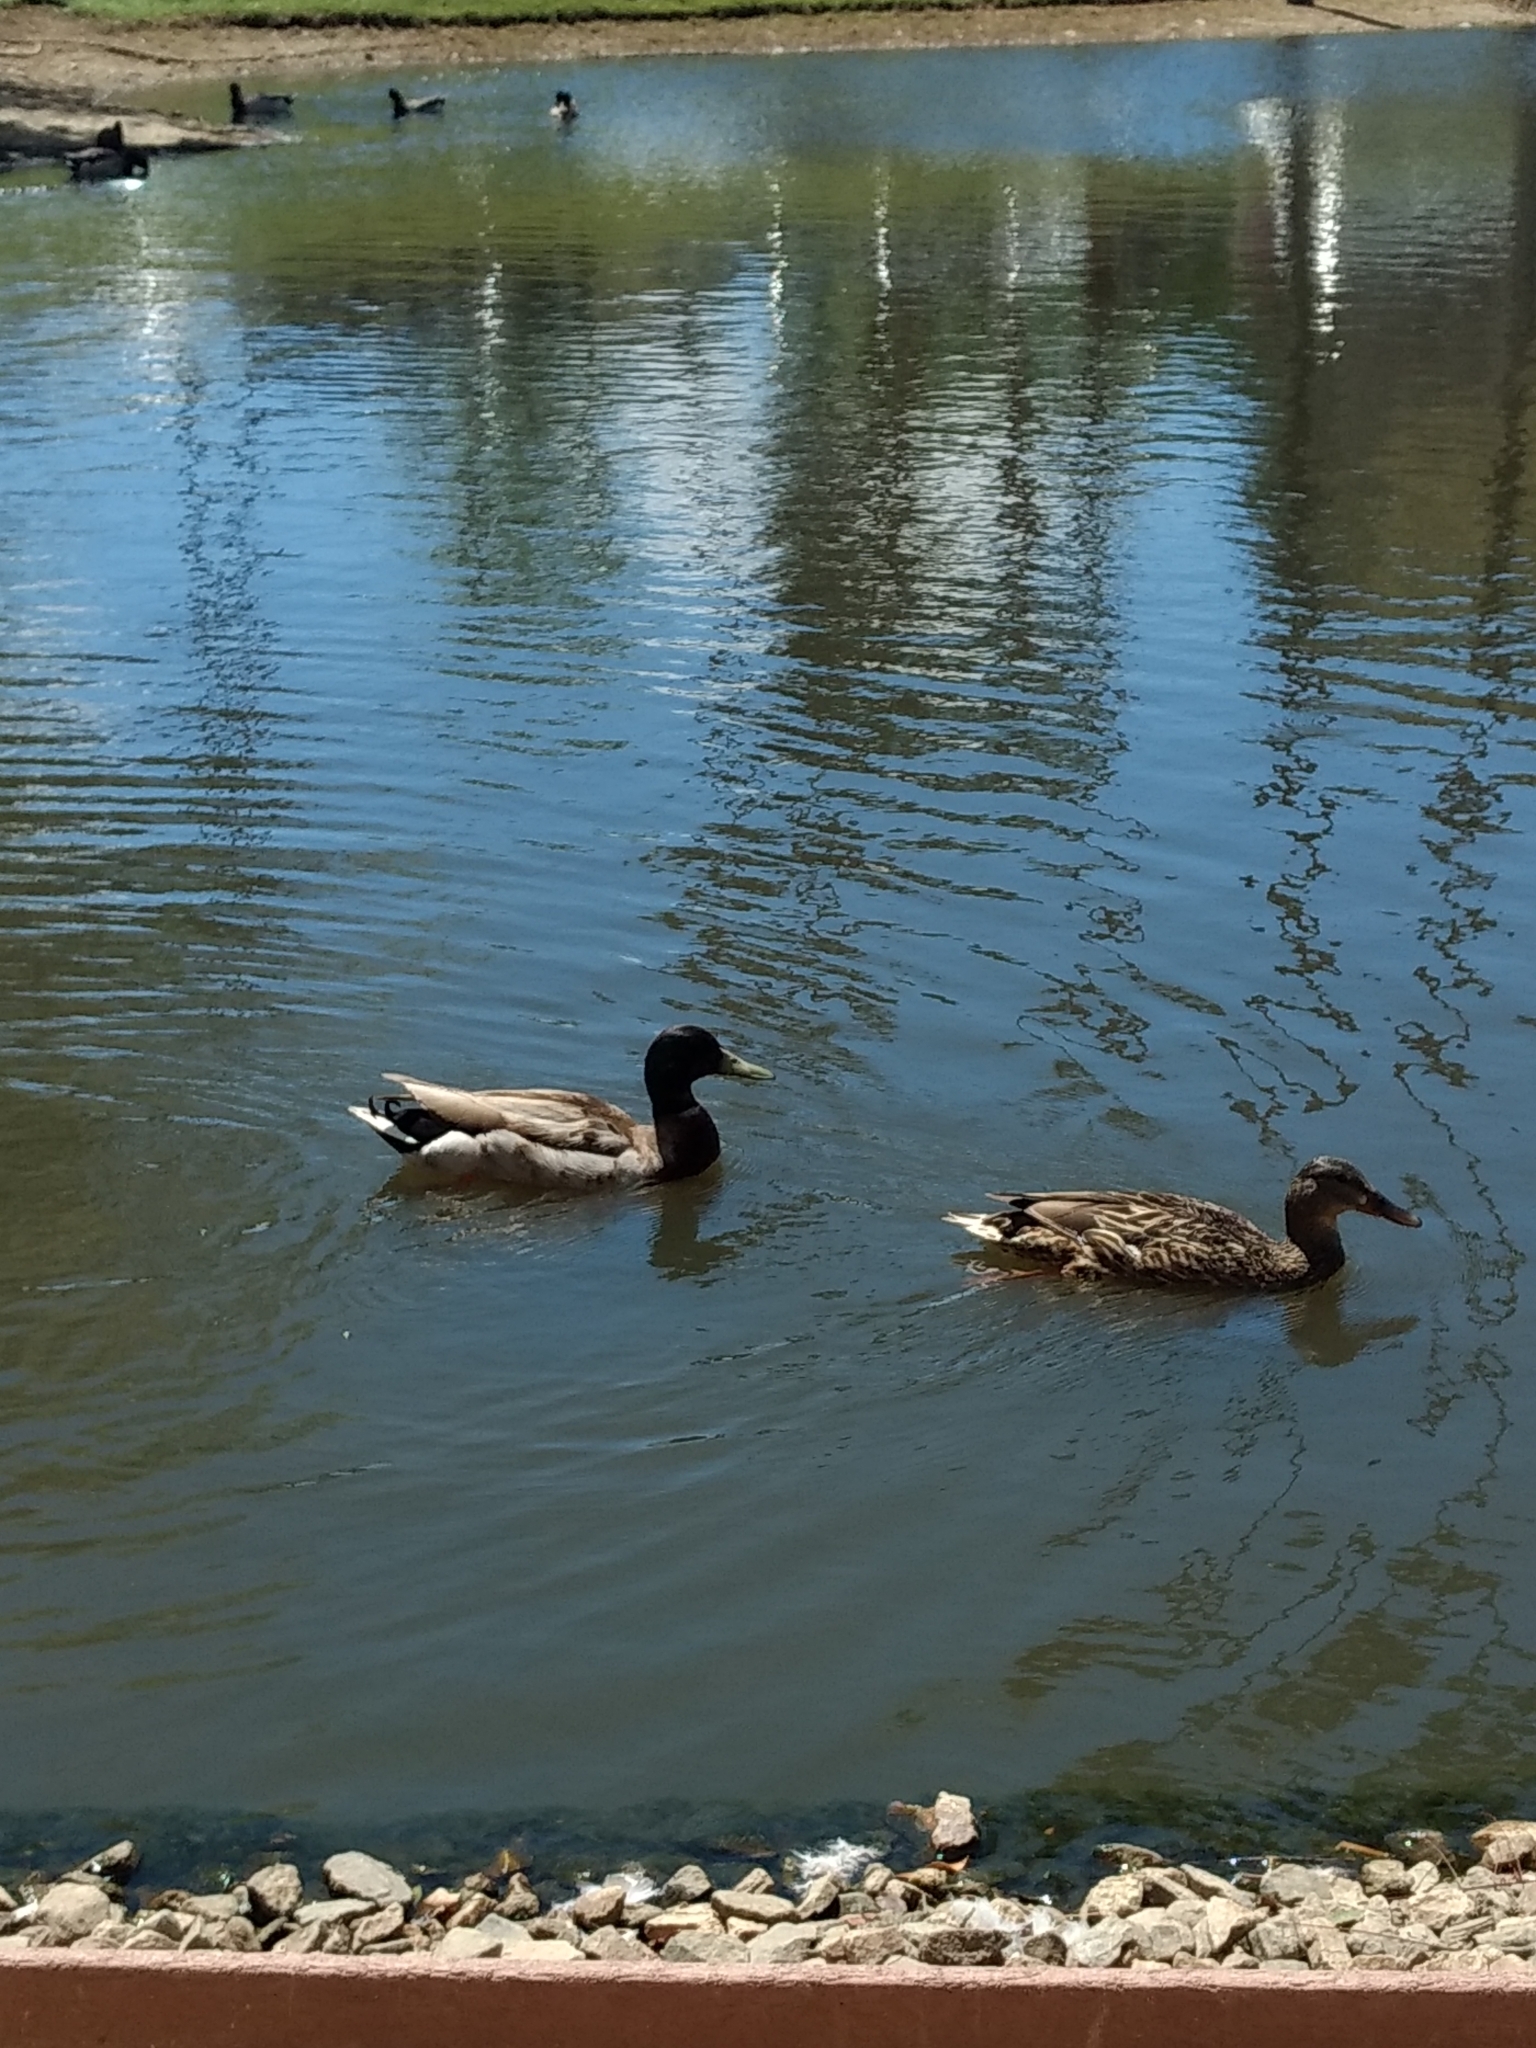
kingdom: Animalia
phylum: Chordata
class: Aves
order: Anseriformes
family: Anatidae
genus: Anas
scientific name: Anas platyrhynchos
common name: Mallard
